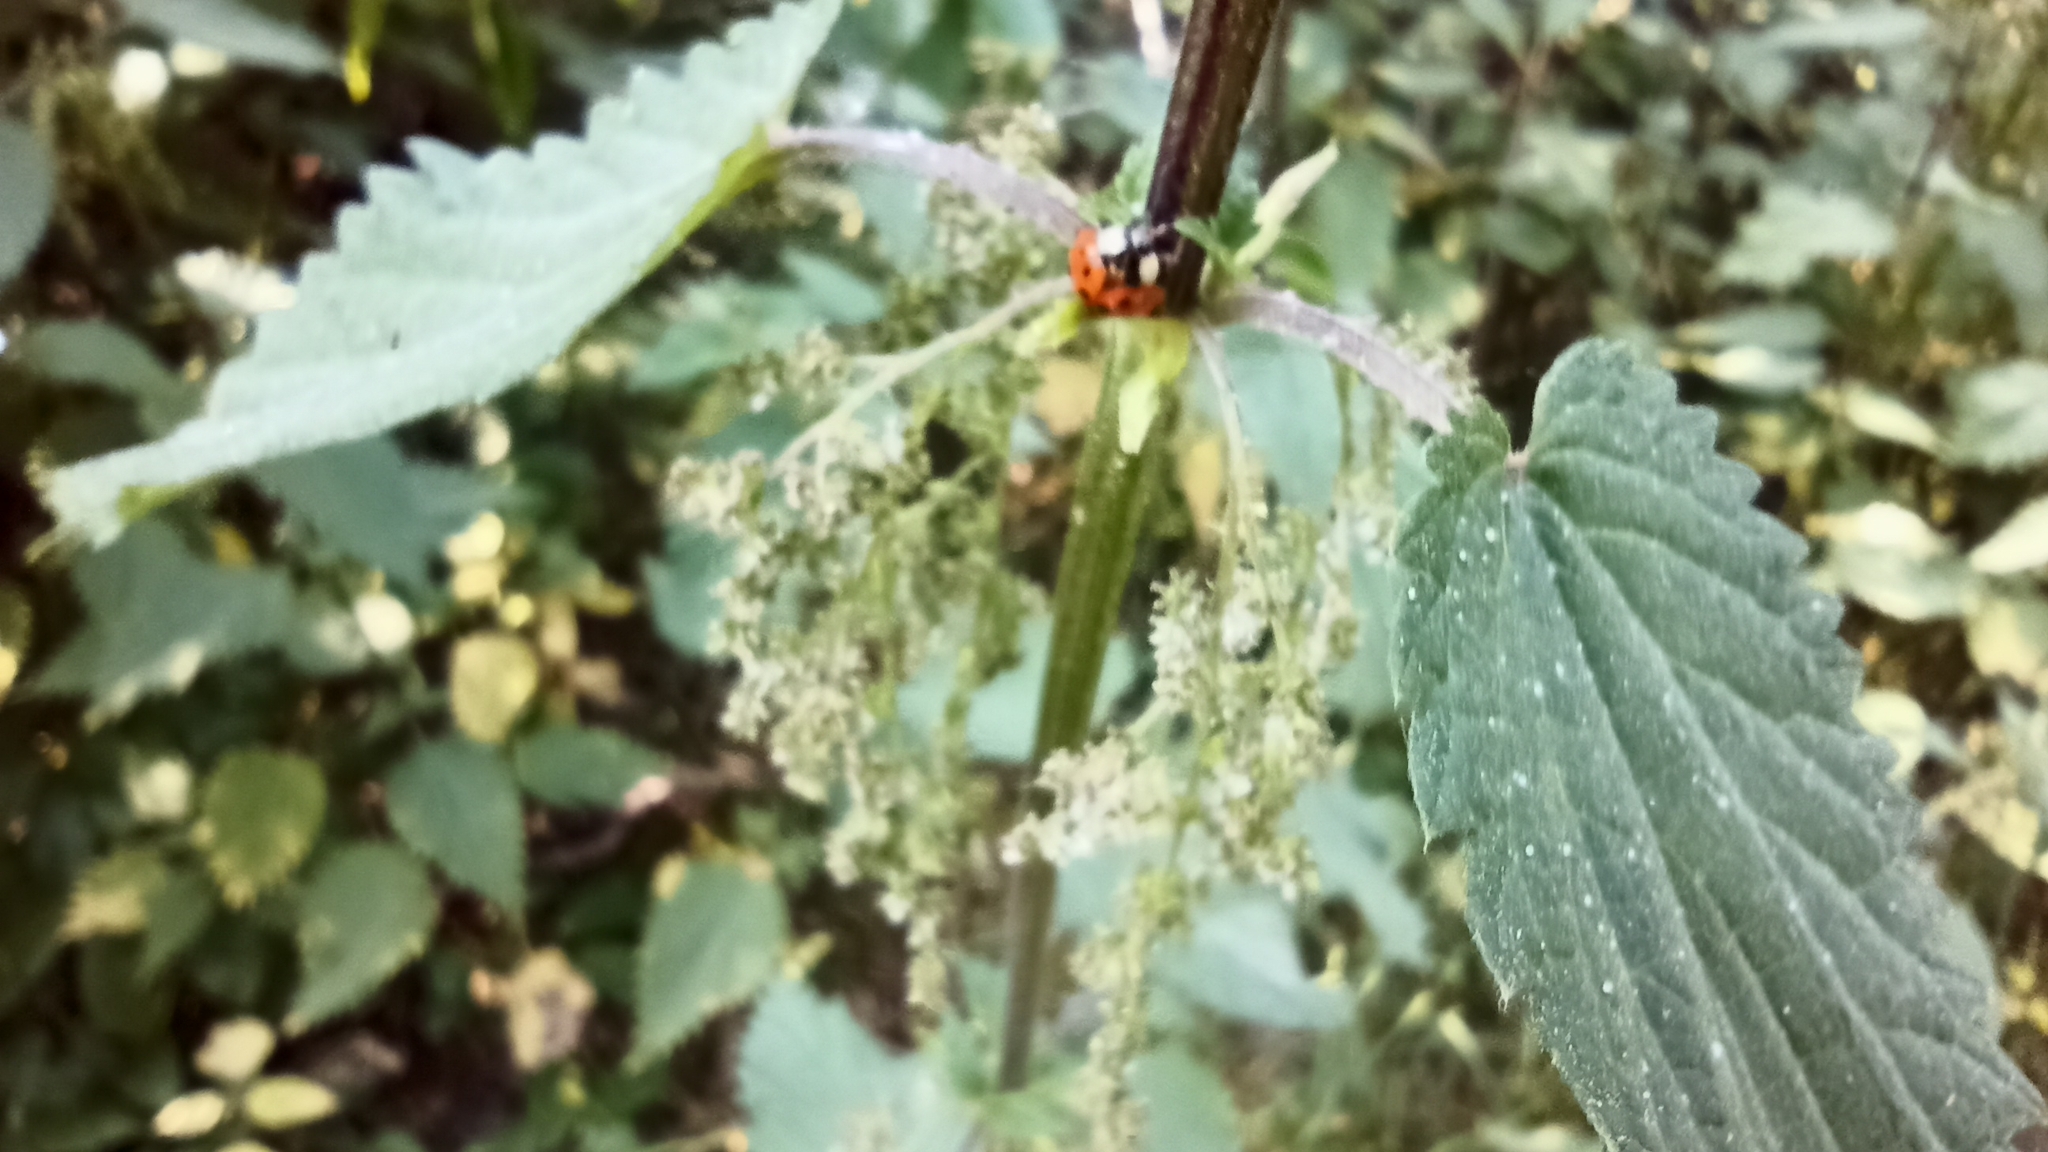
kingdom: Animalia
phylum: Arthropoda
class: Insecta
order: Coleoptera
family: Coccinellidae
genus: Harmonia
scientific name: Harmonia axyridis
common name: Harlequin ladybird
